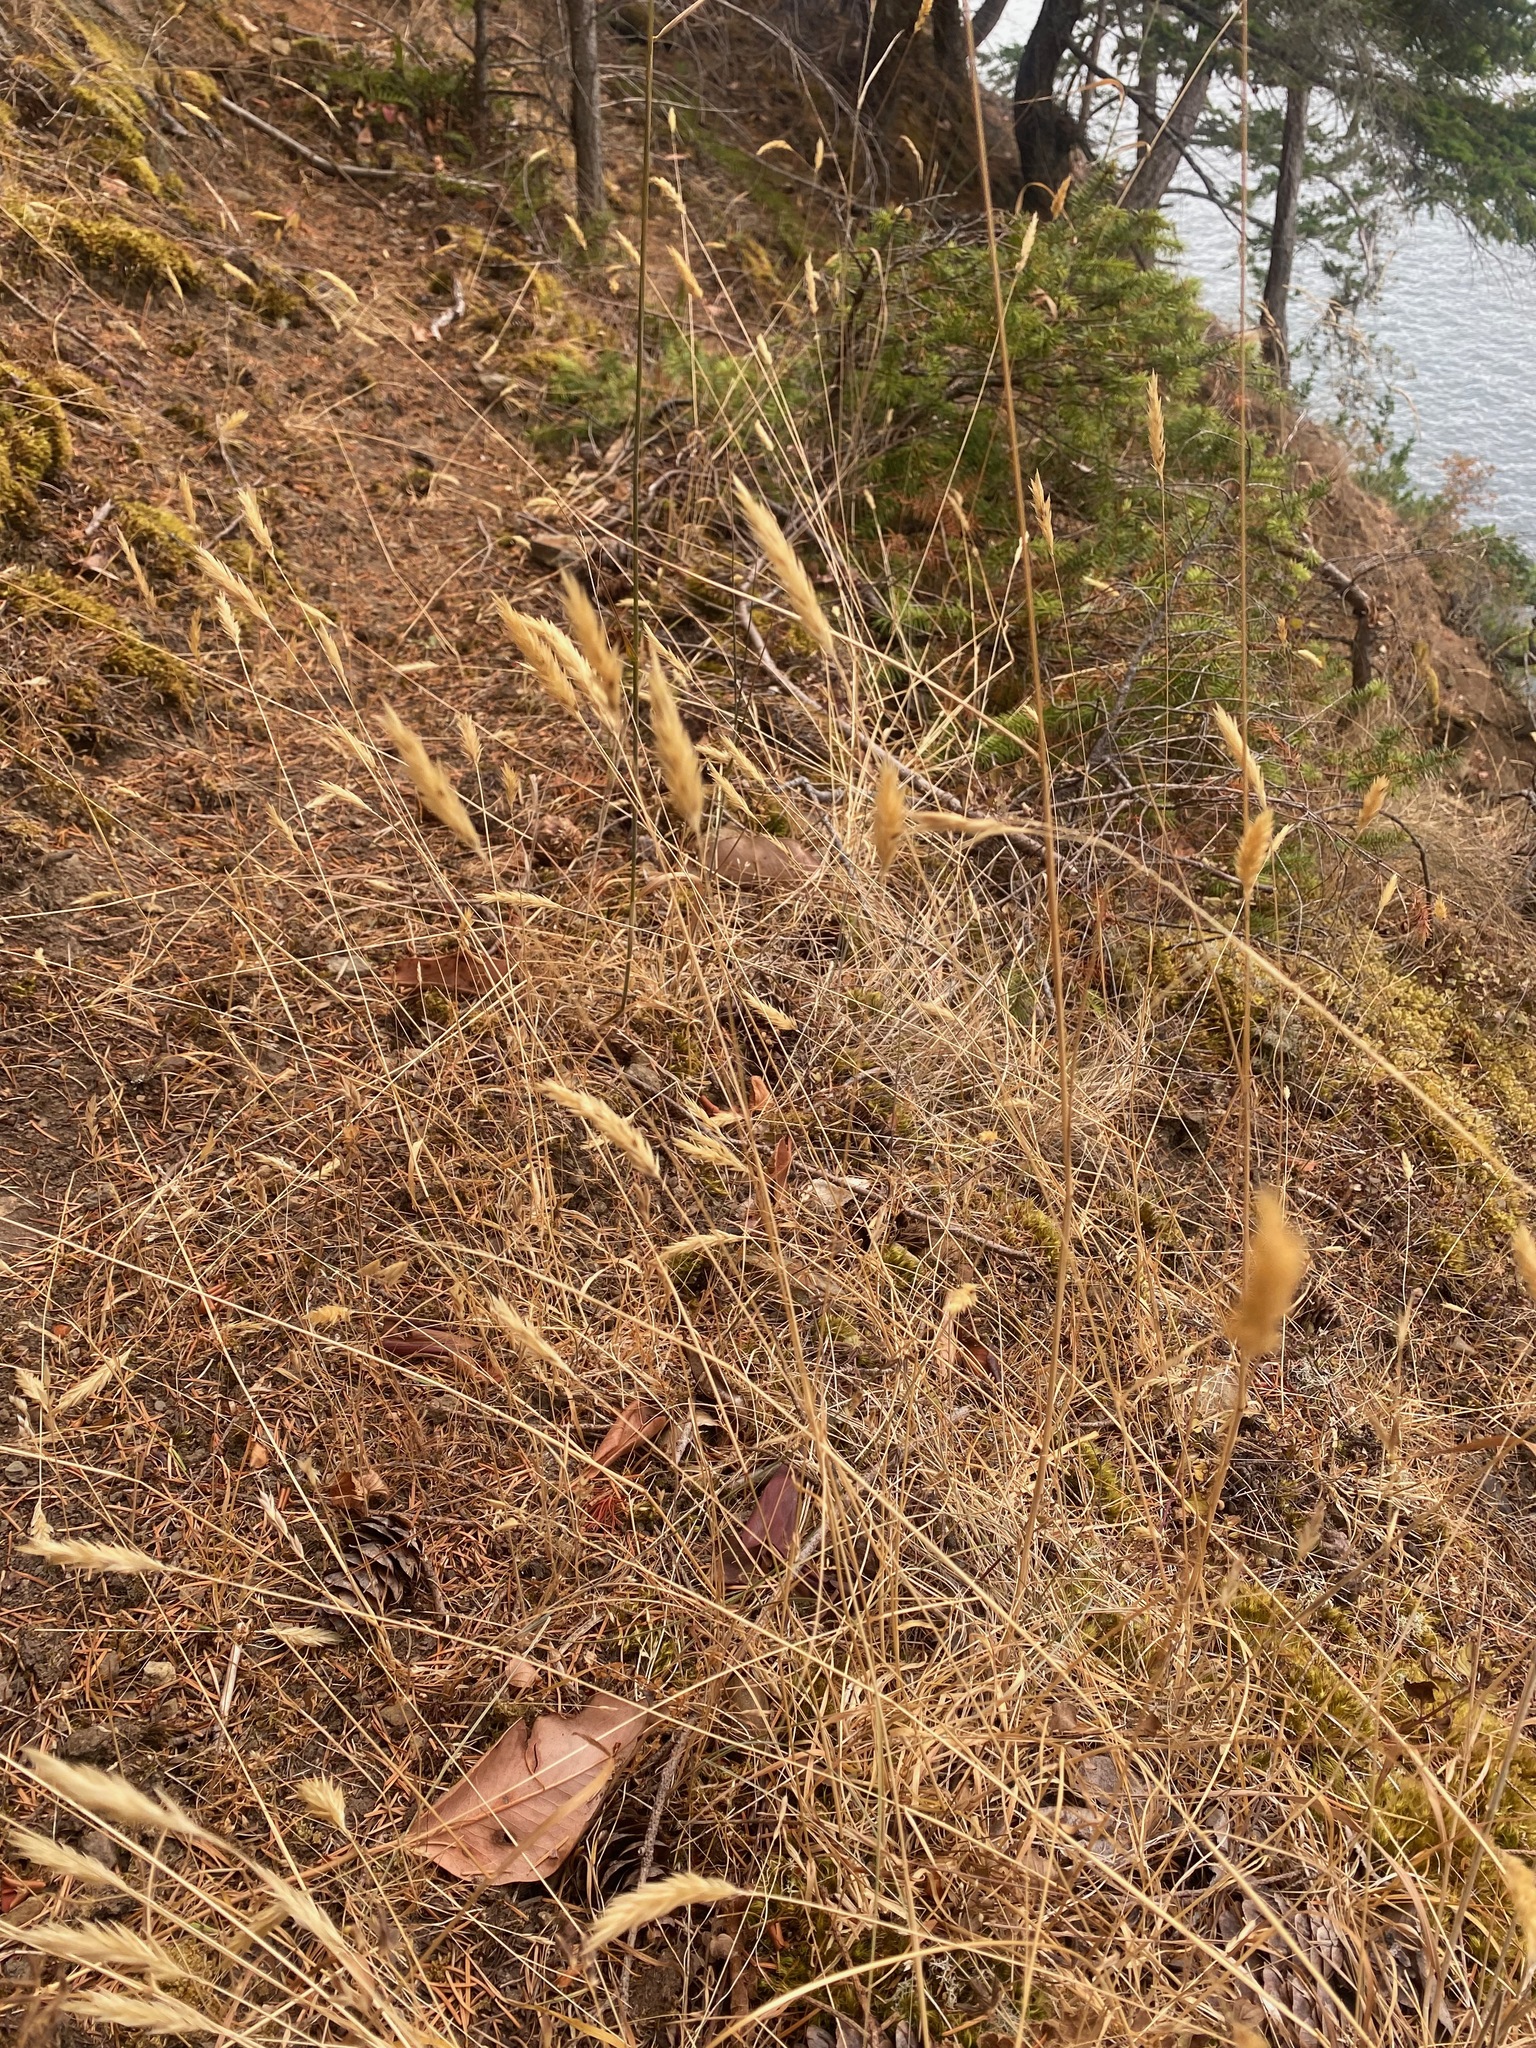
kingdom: Plantae
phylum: Tracheophyta
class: Liliopsida
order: Poales
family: Poaceae
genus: Anthoxanthum
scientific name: Anthoxanthum odoratum
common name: Sweet vernalgrass
